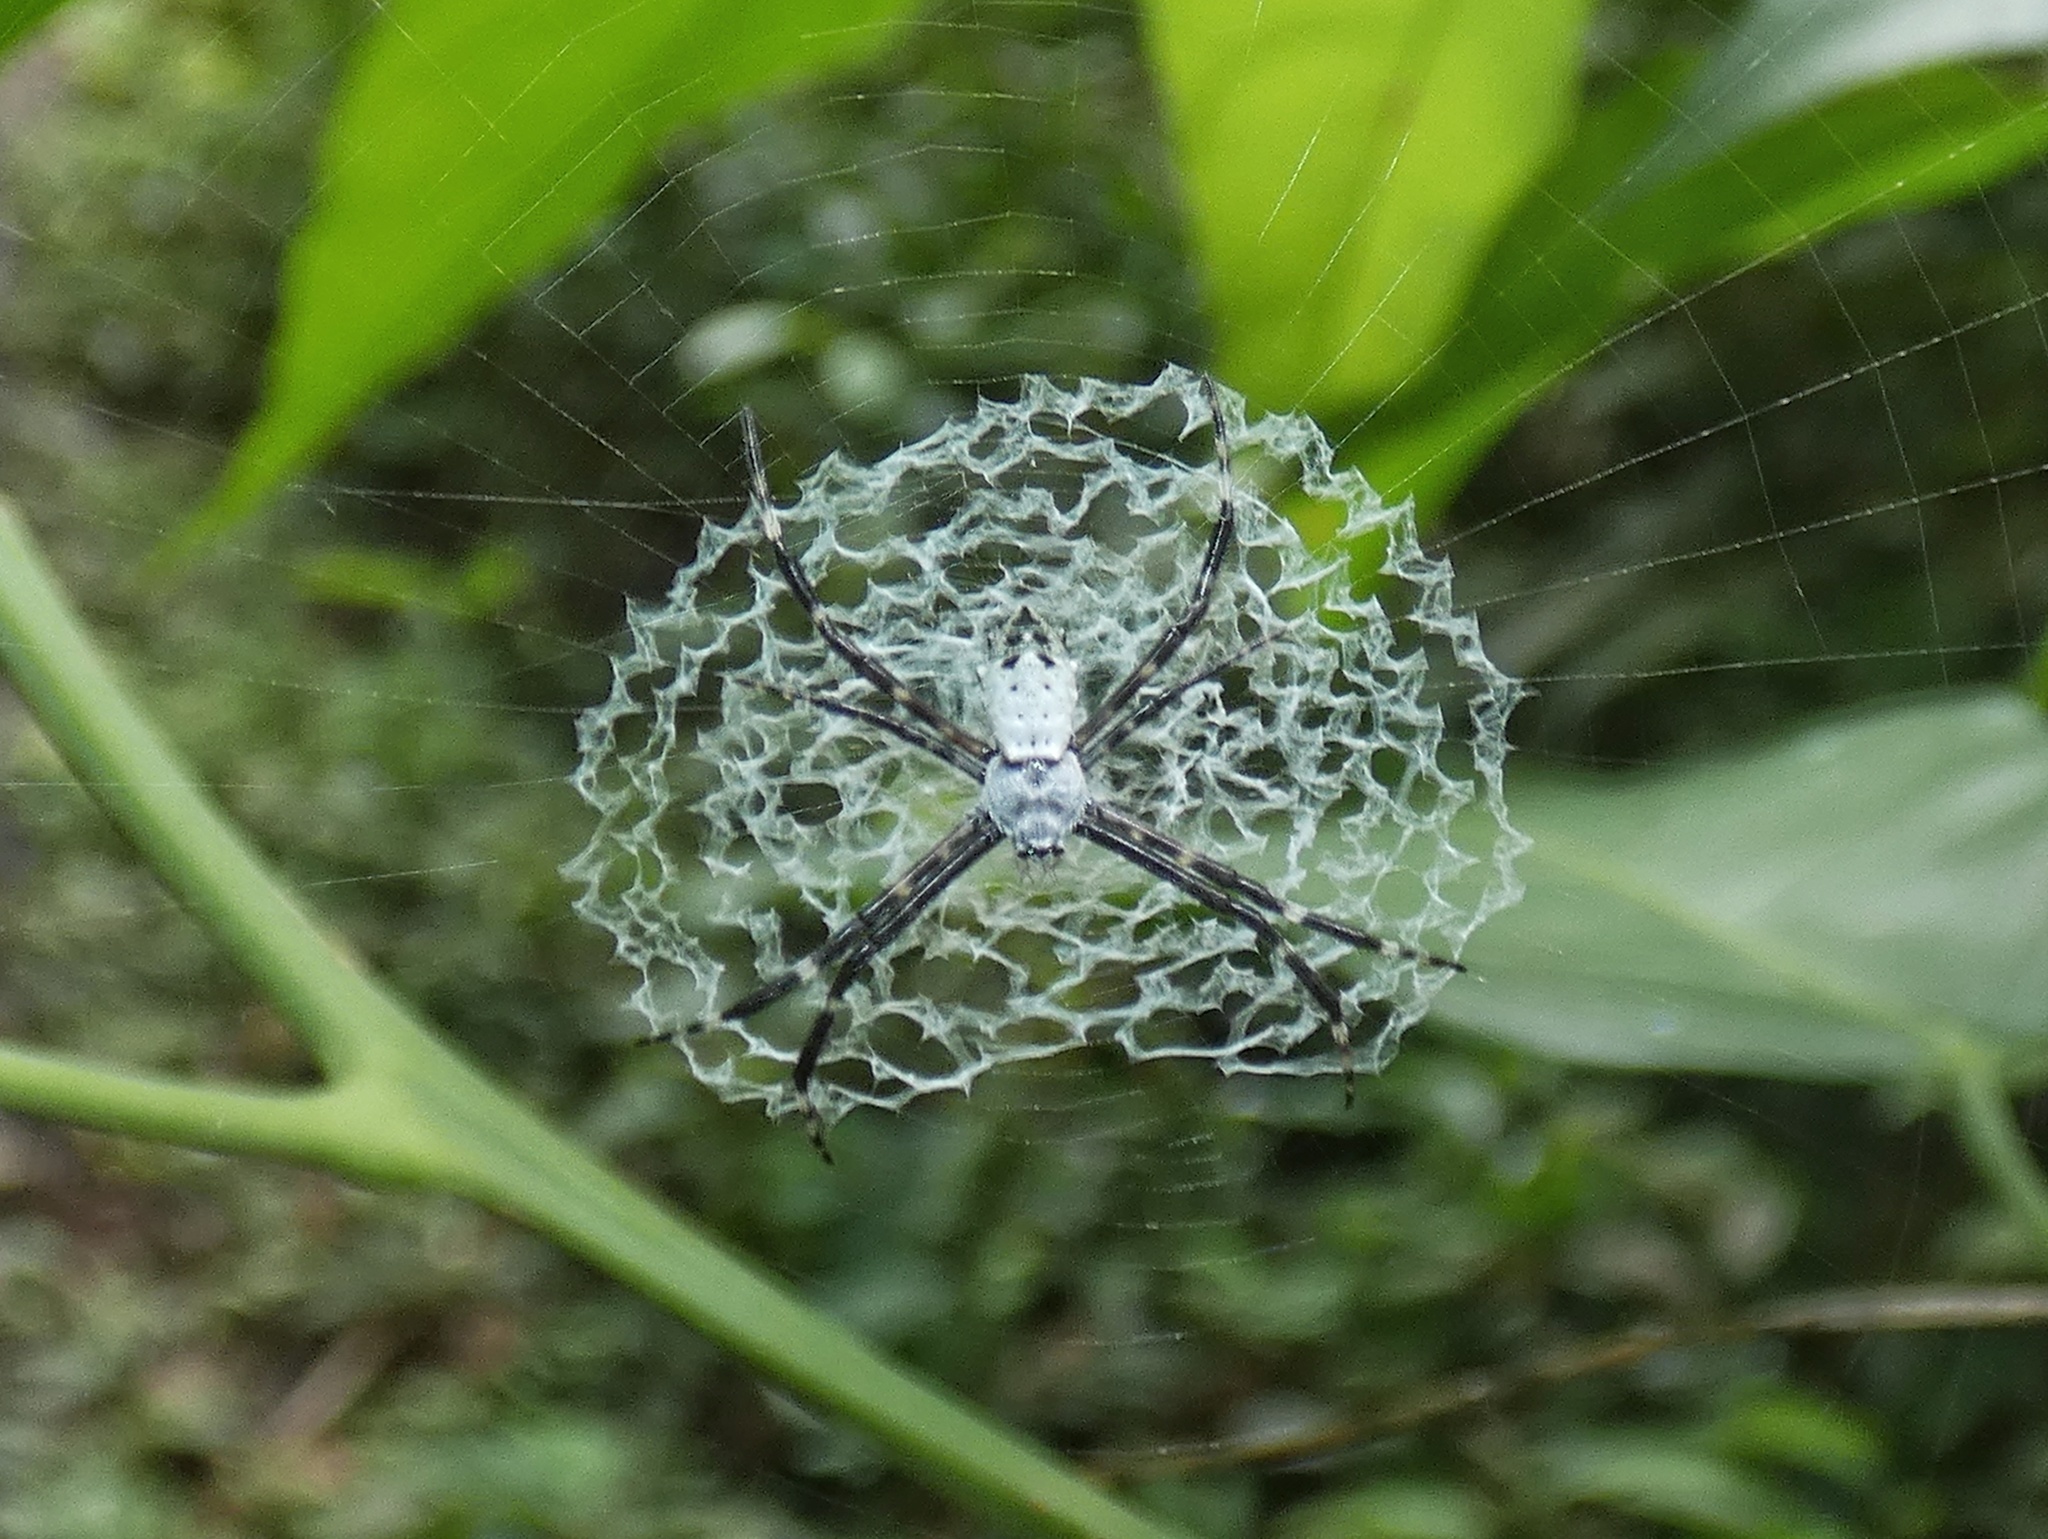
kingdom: Animalia
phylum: Arthropoda
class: Arachnida
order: Araneae
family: Araneidae
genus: Argiope
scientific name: Argiope submaronica
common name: Orb weavers
